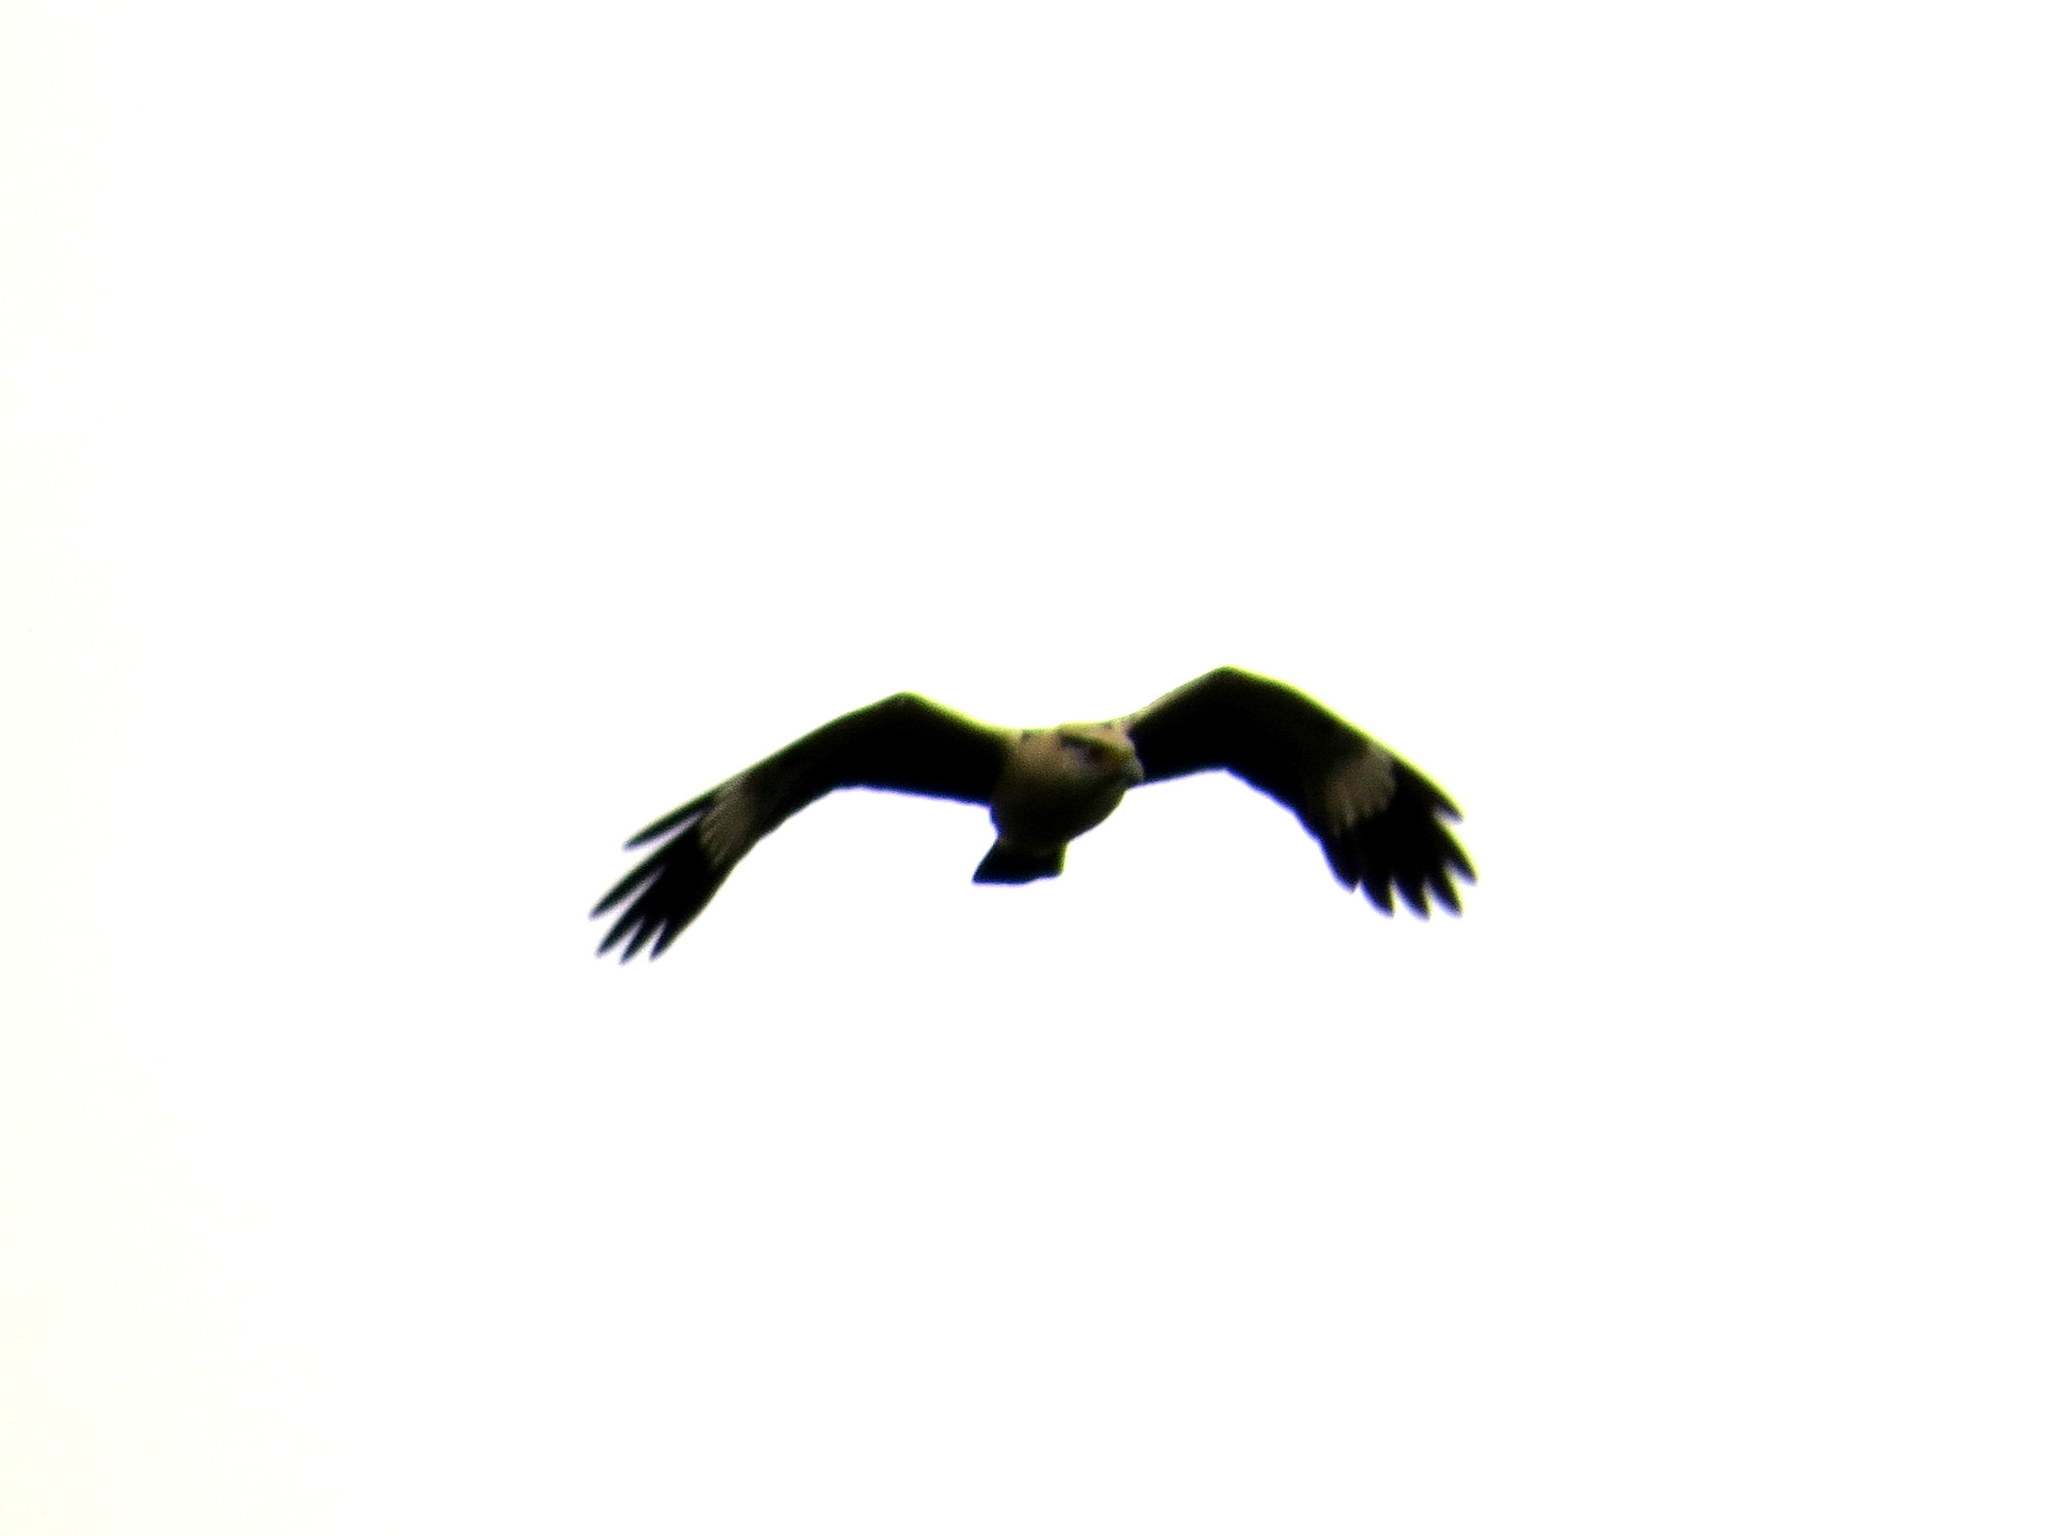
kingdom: Animalia
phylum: Chordata
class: Aves
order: Falconiformes
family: Falconidae
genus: Daptrius
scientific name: Daptrius
